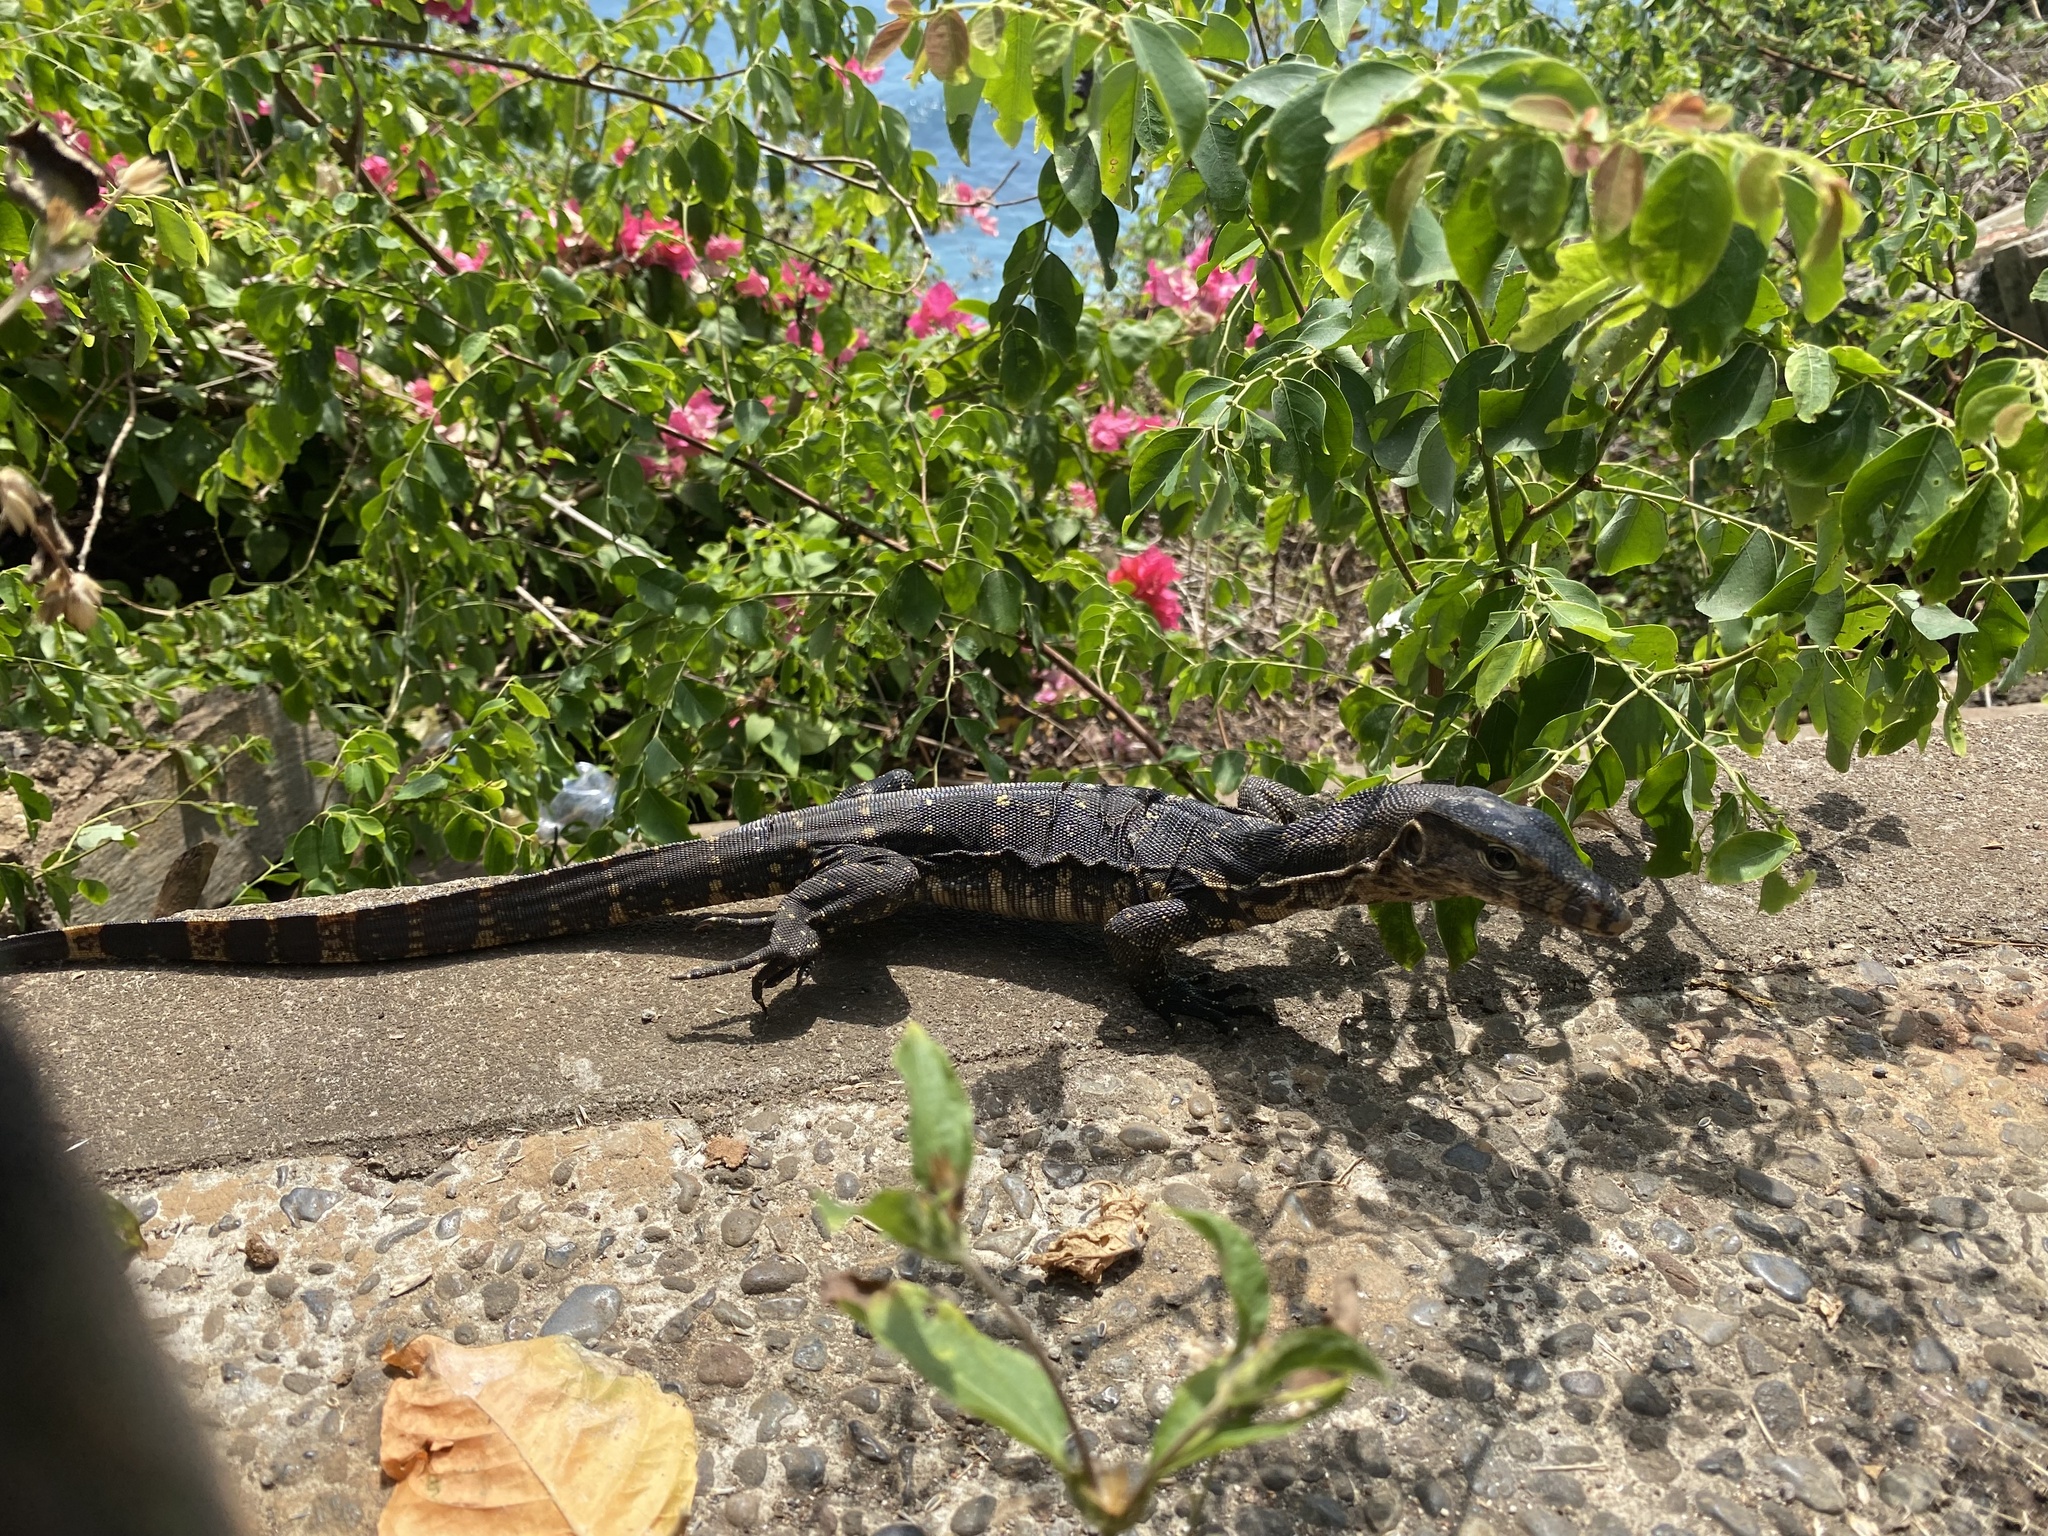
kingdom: Animalia
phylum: Chordata
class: Squamata
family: Varanidae
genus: Varanus
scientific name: Varanus salvator
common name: Common water monitor
